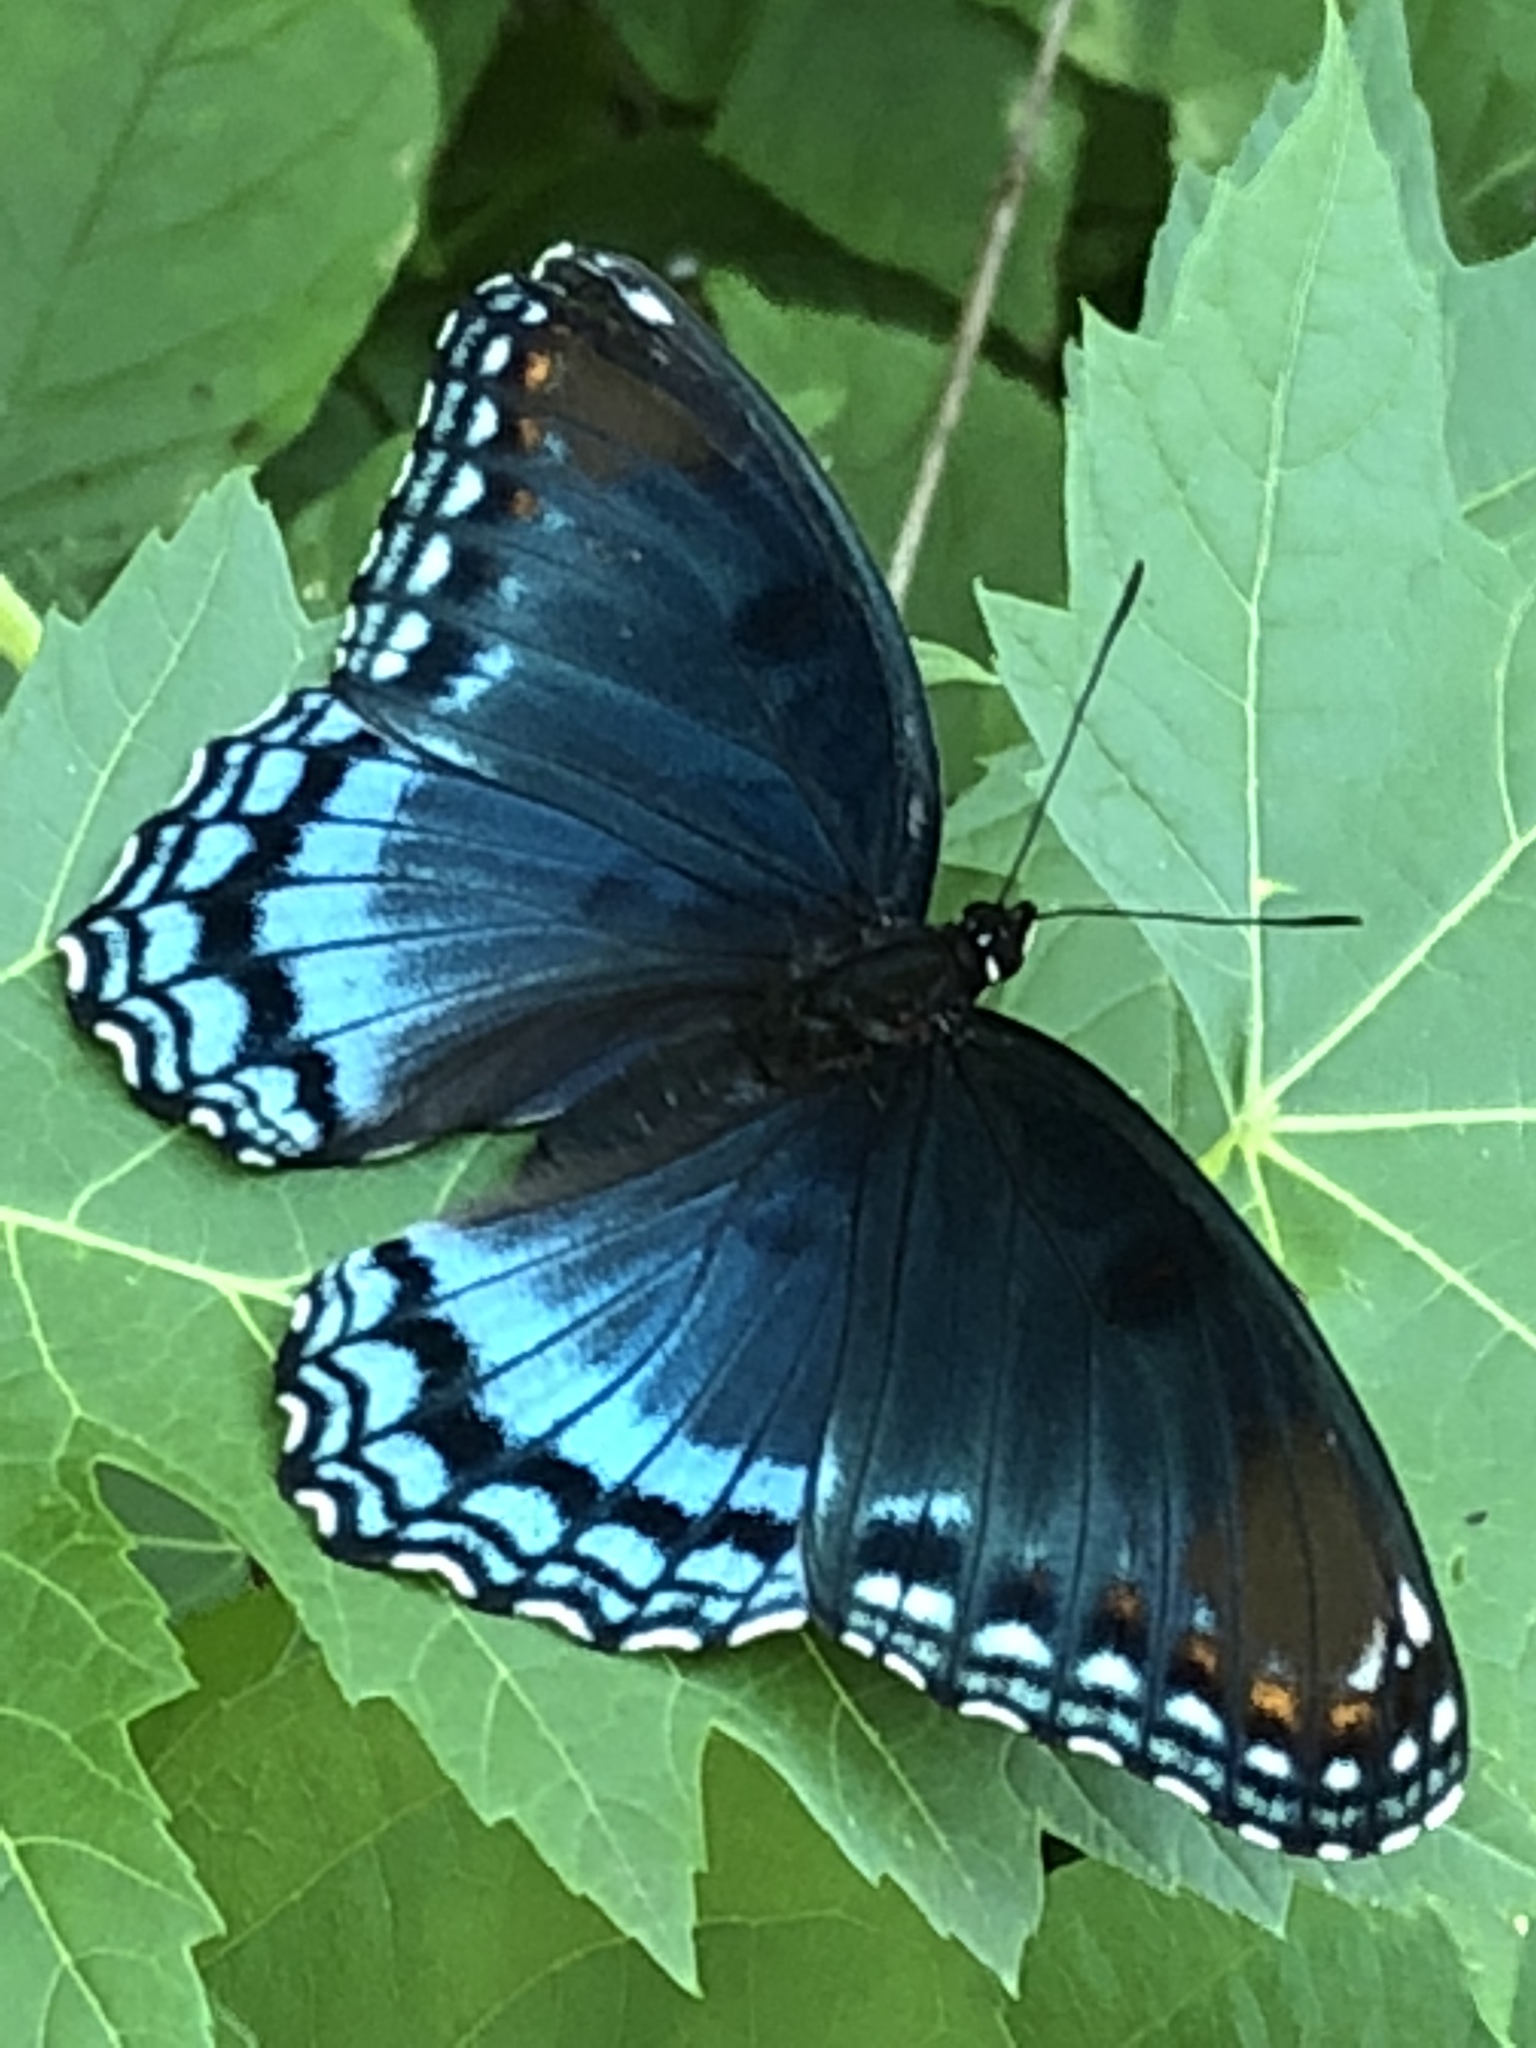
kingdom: Animalia
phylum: Arthropoda
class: Insecta
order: Lepidoptera
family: Nymphalidae
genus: Limenitis
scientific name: Limenitis arthemis
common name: Red-spotted admiral
